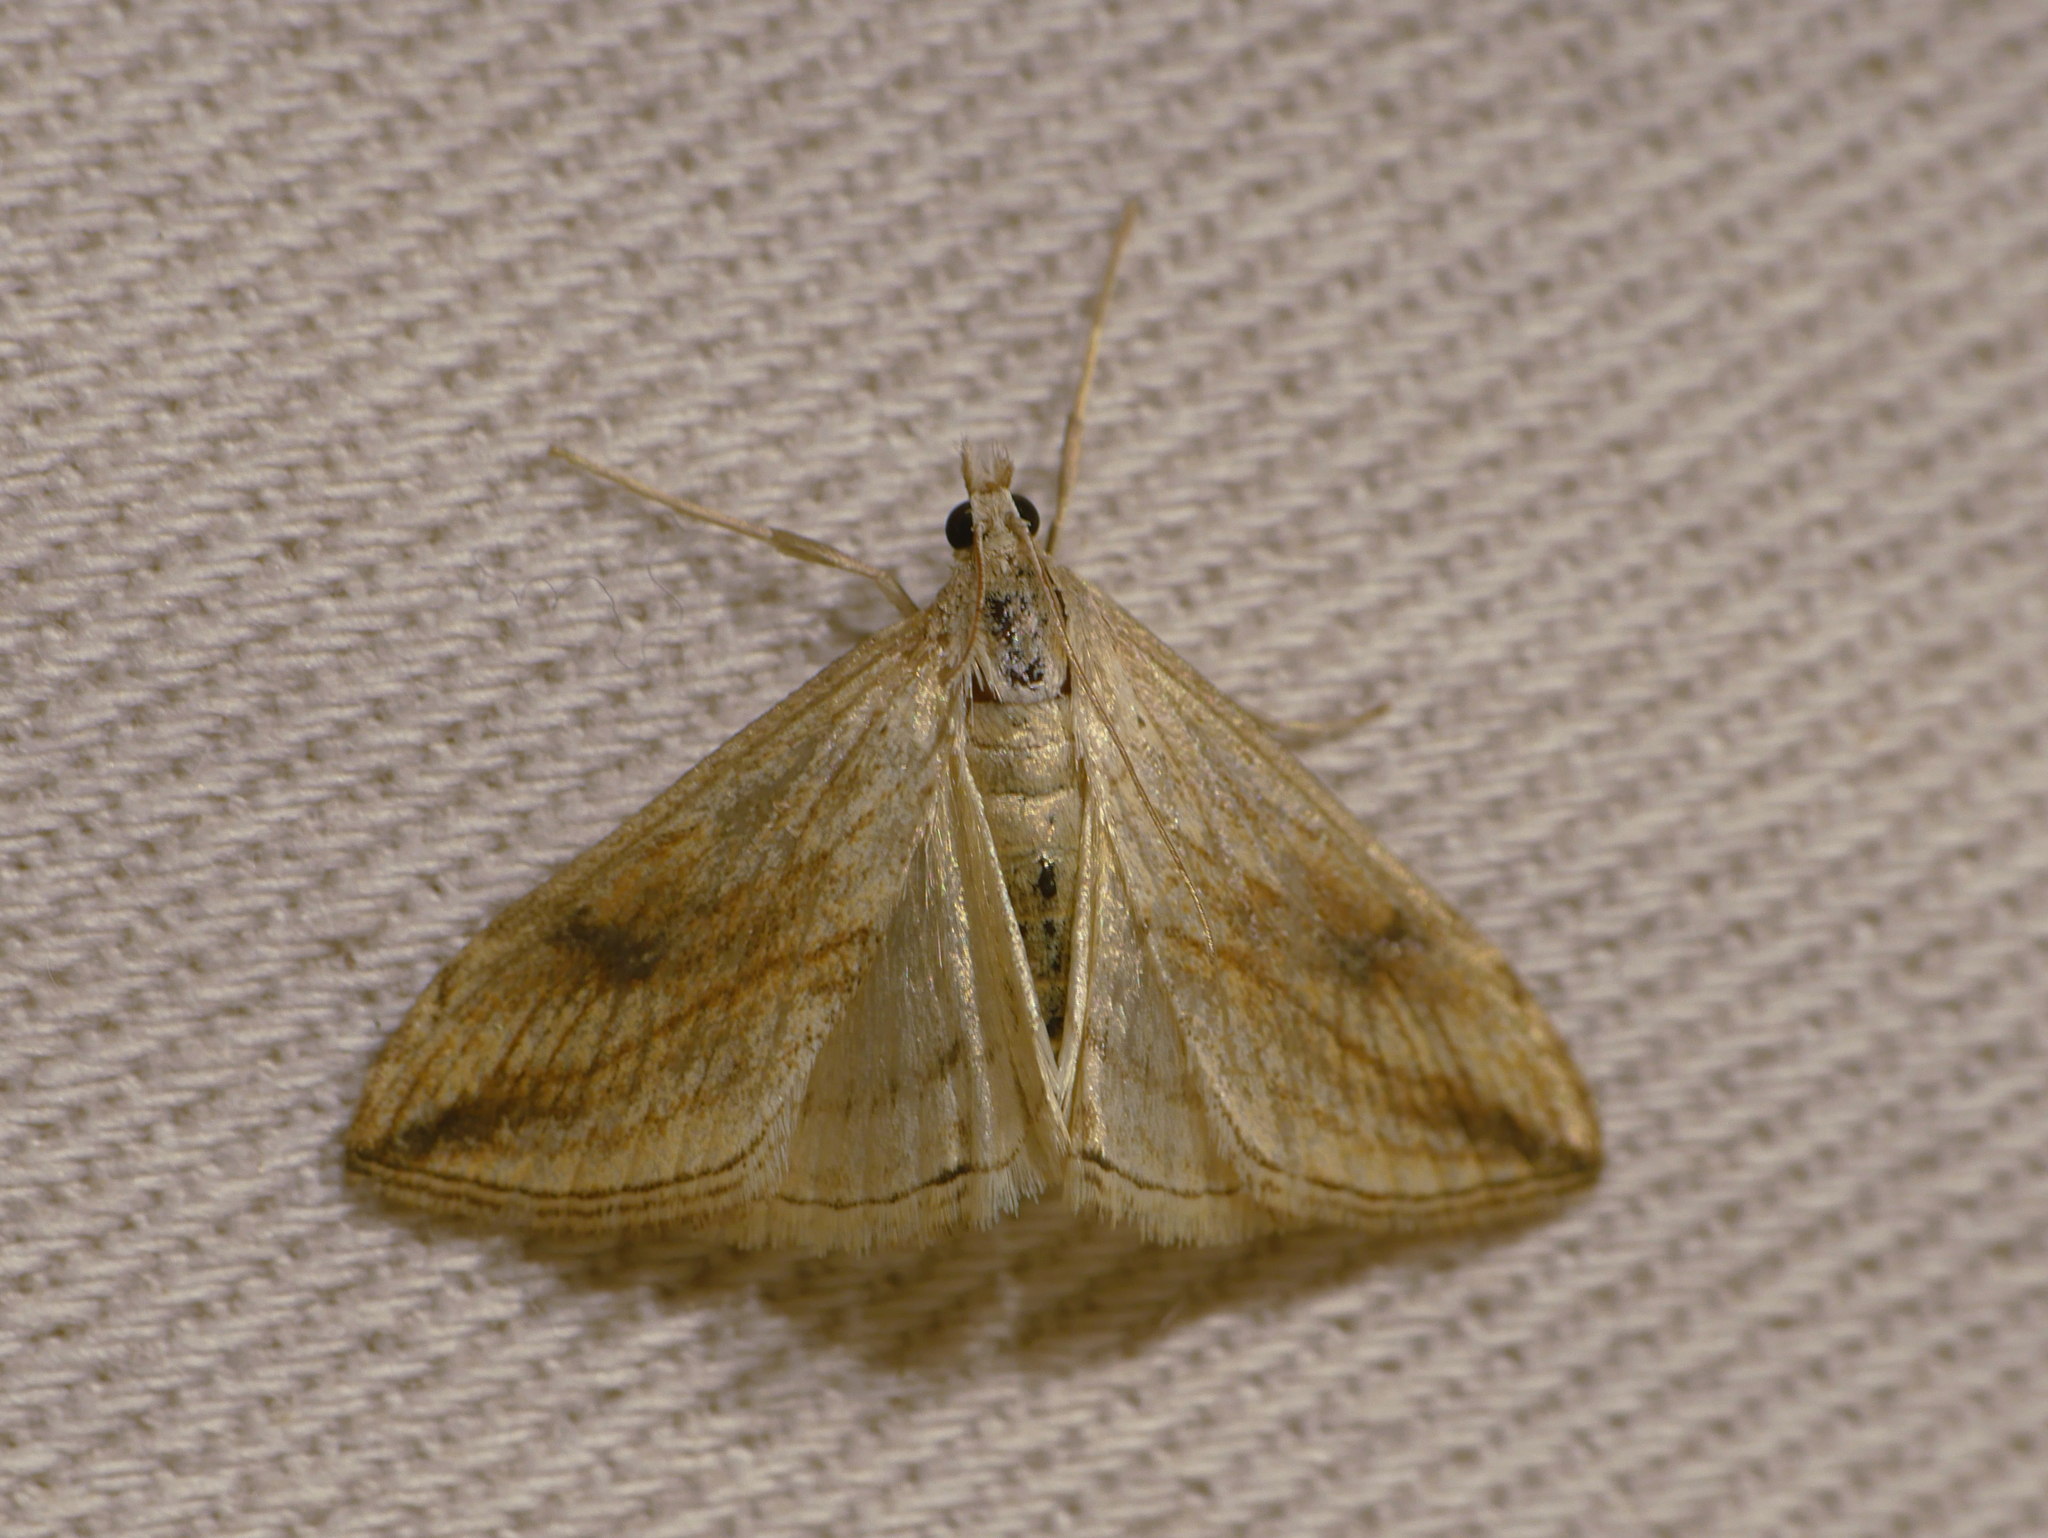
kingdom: Animalia
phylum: Arthropoda
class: Insecta
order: Lepidoptera
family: Crambidae
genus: Evergestis
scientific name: Evergestis forficalis
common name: Garden pebble
